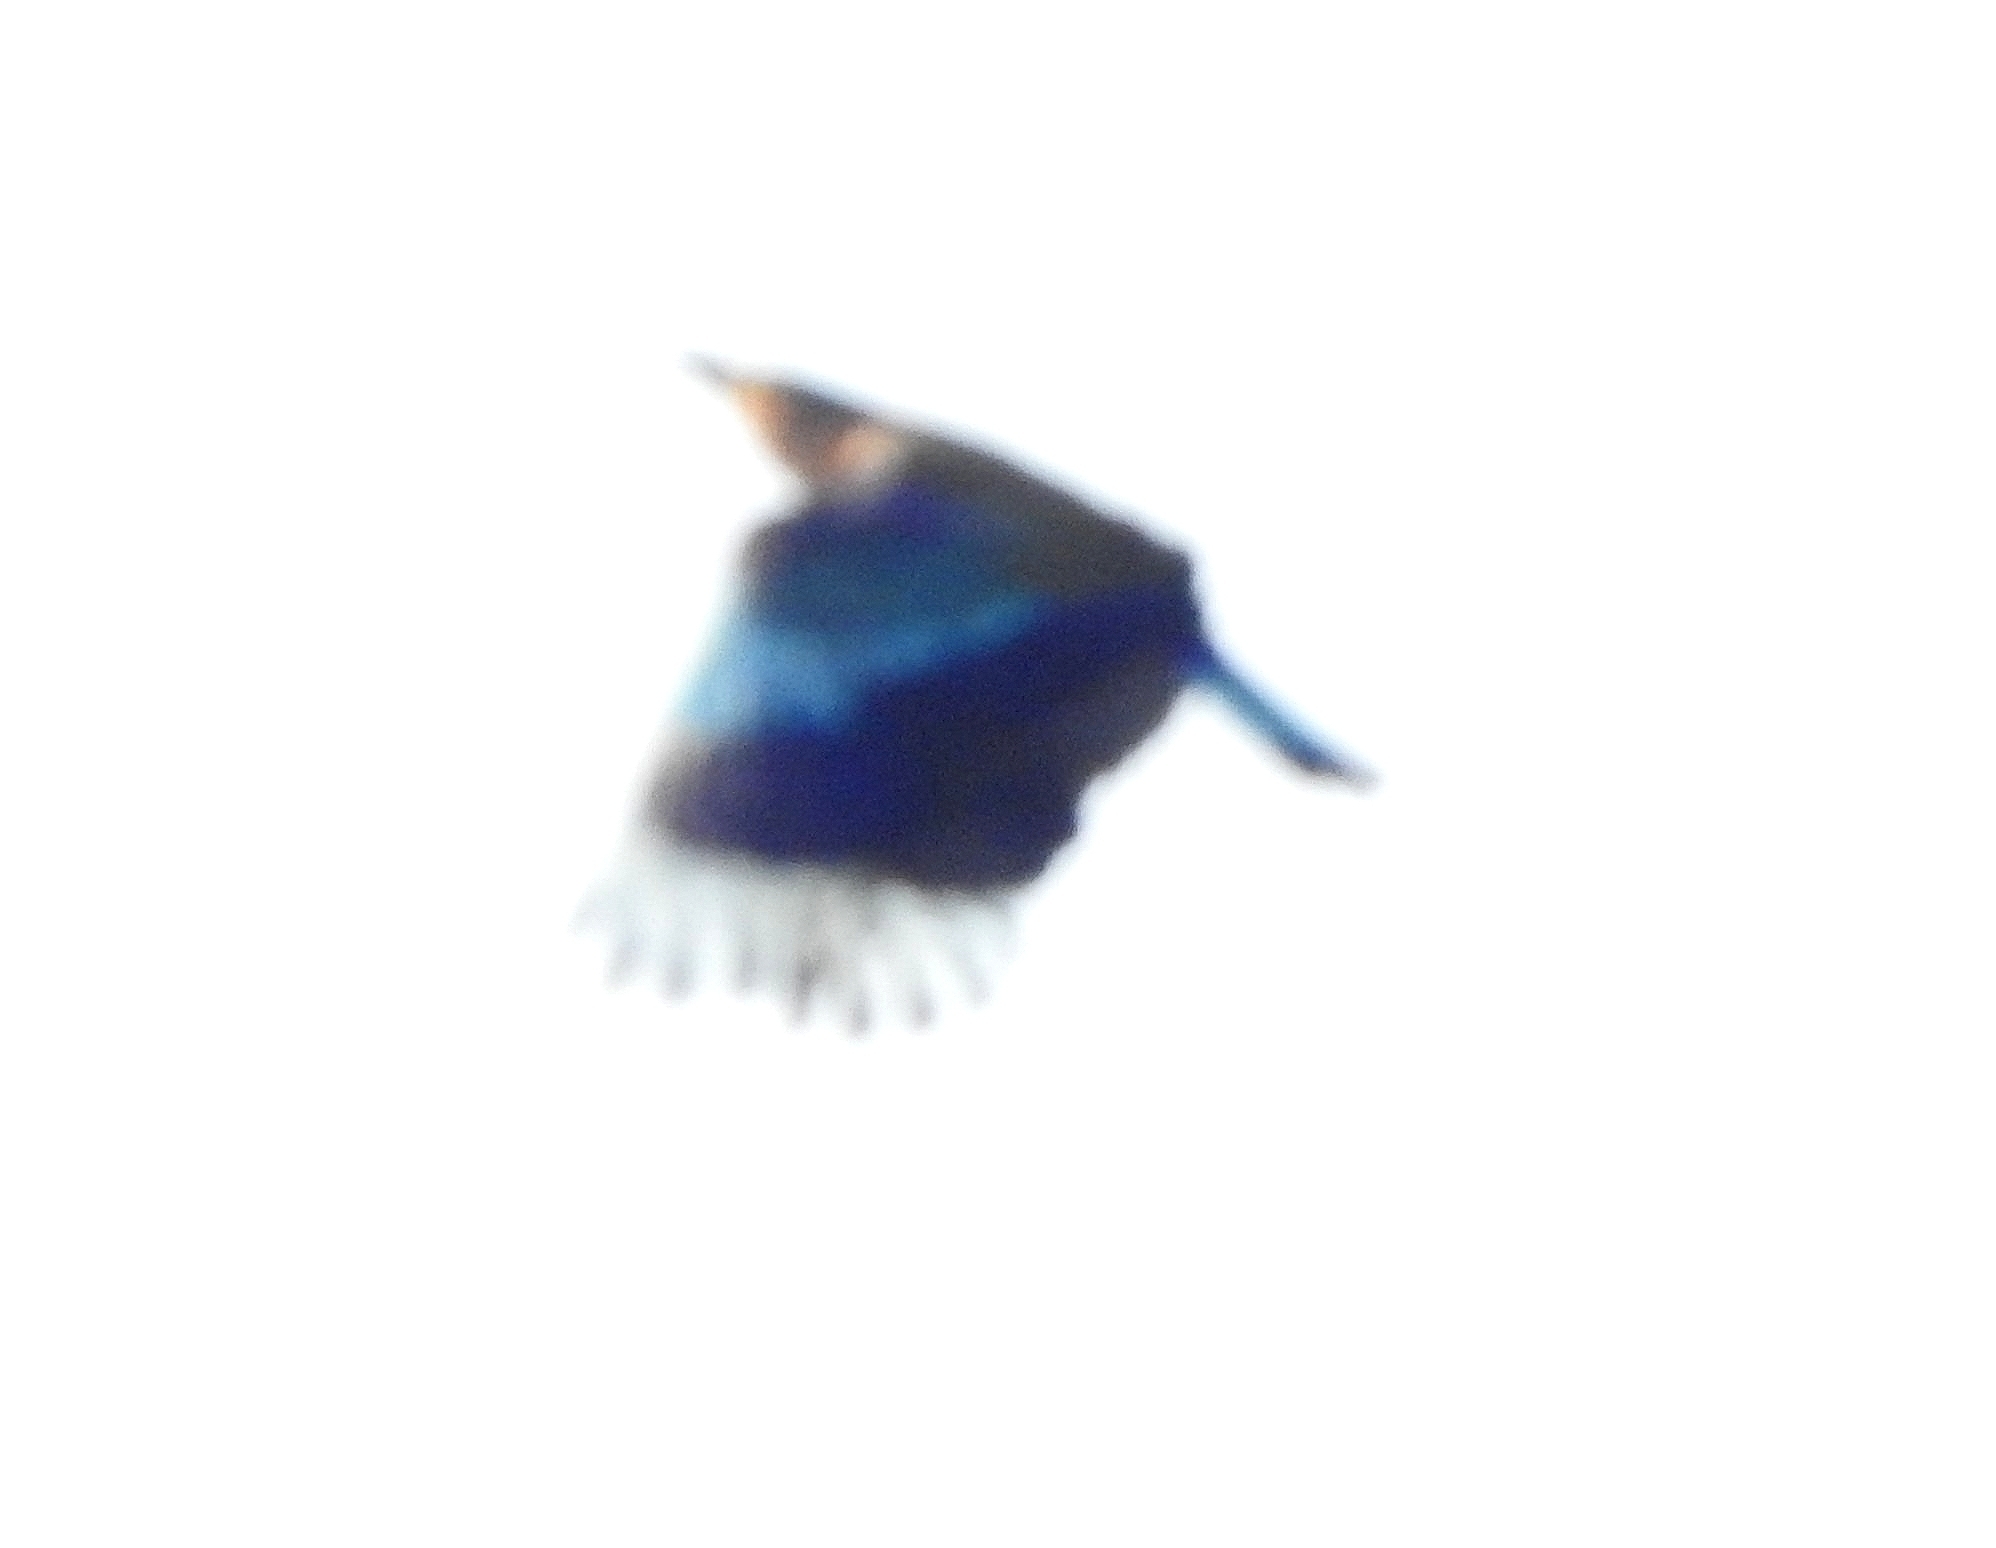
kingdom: Animalia
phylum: Chordata
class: Aves
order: Coraciiformes
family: Coraciidae
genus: Coracias
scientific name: Coracias benghalensis
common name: Indian roller
